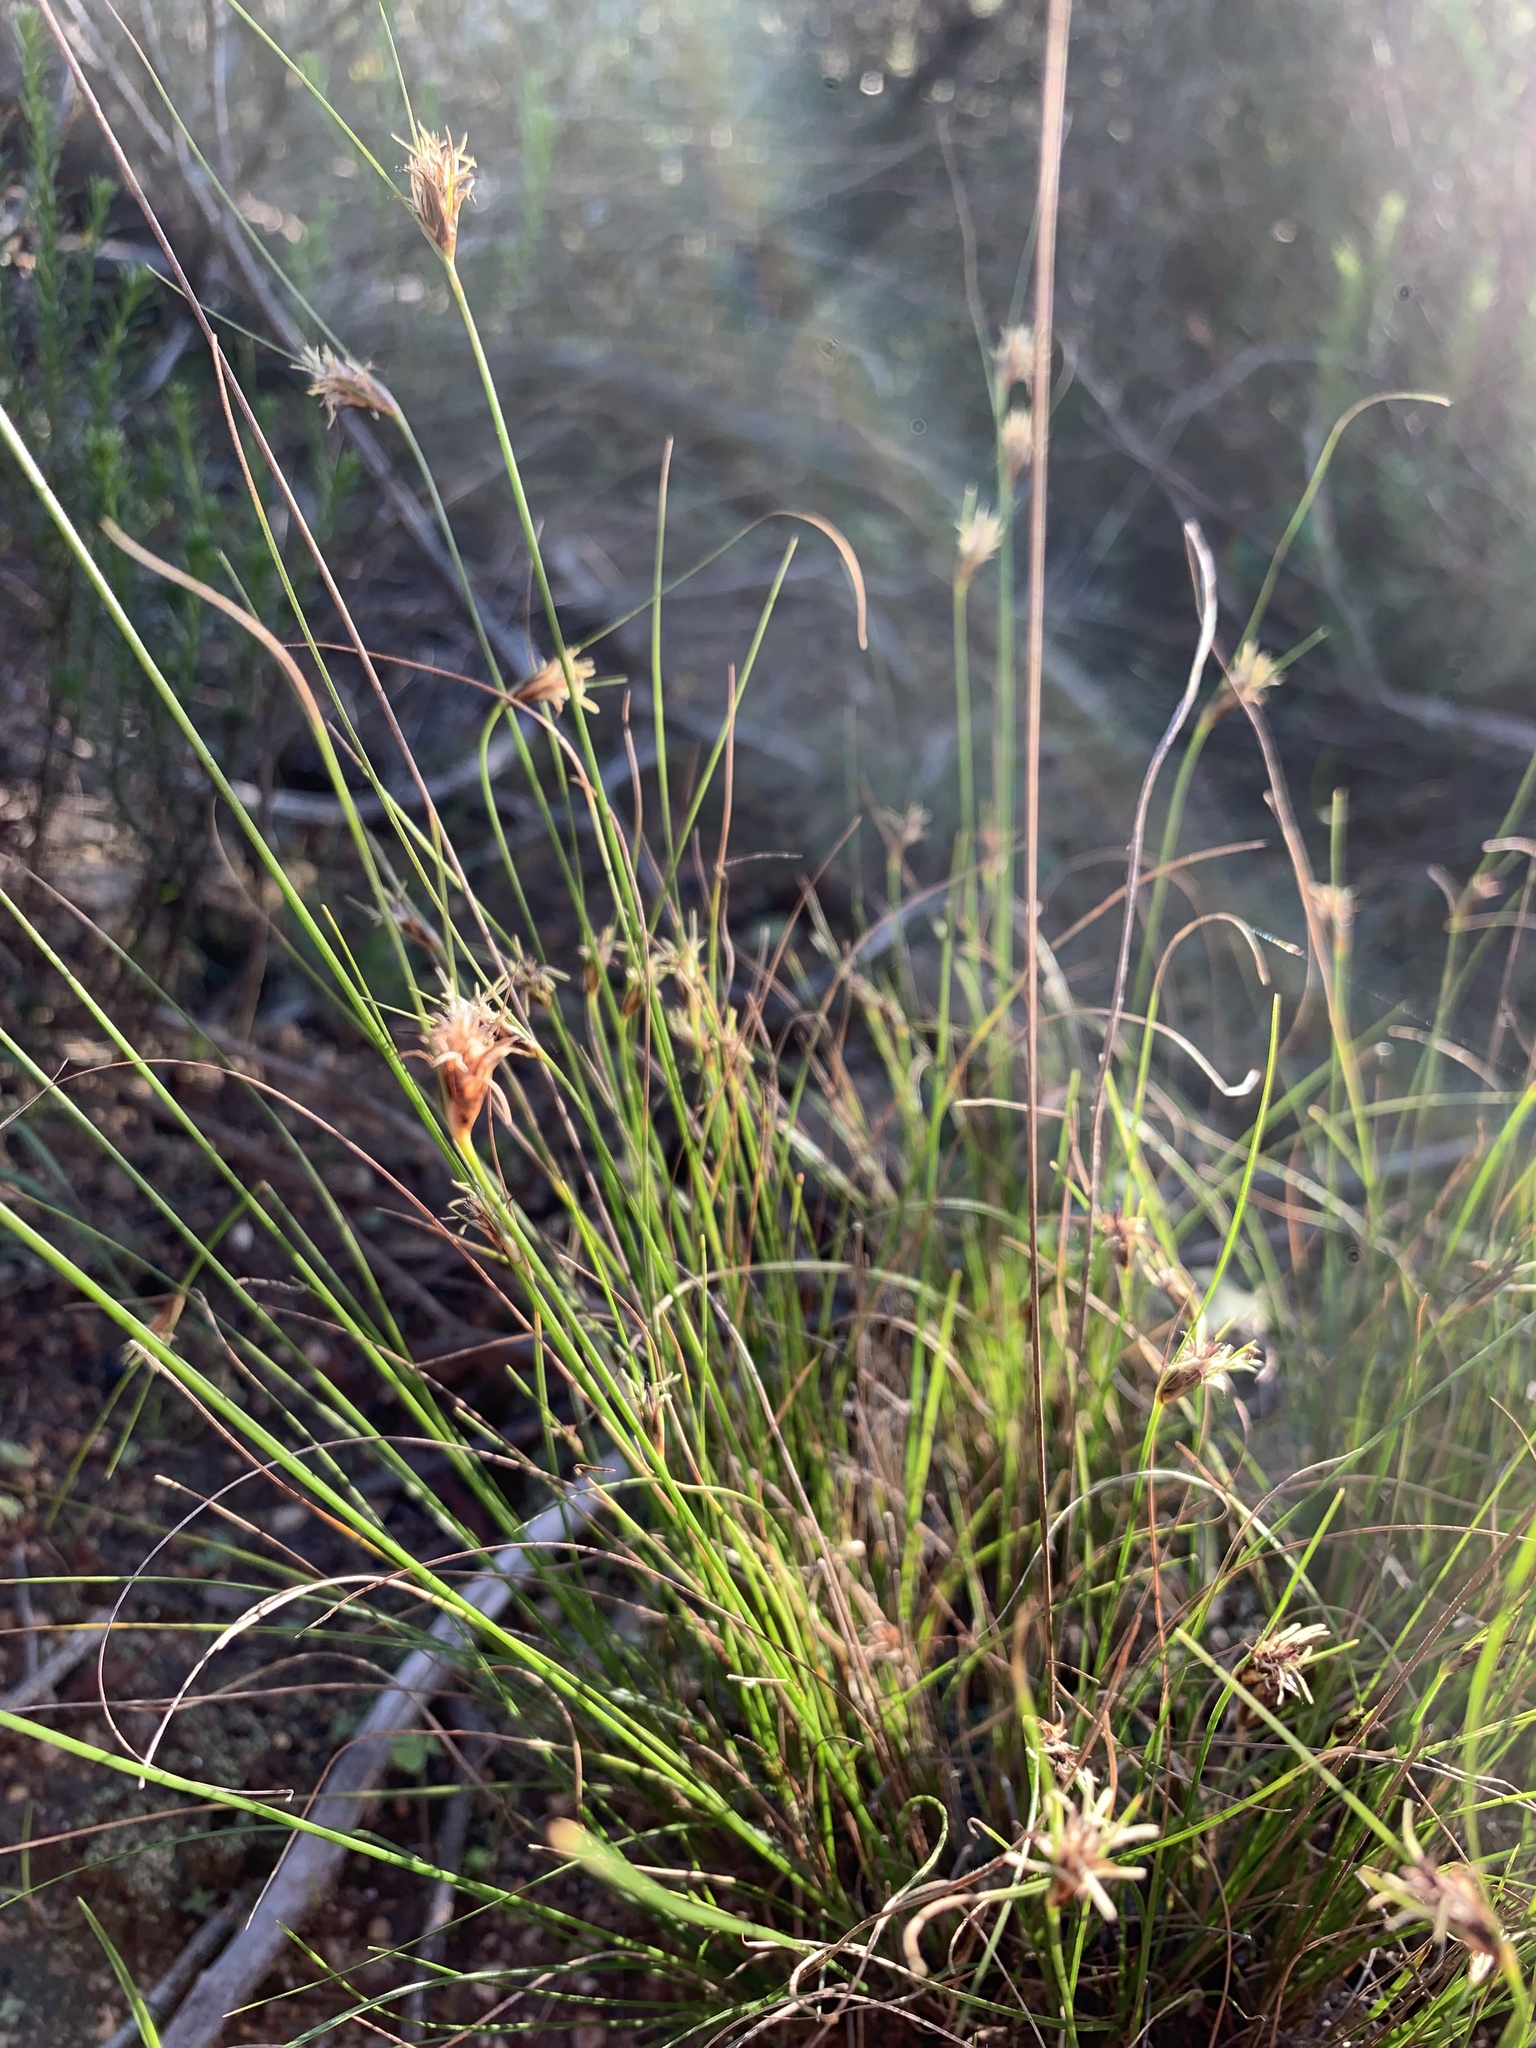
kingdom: Plantae
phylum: Tracheophyta
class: Liliopsida
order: Poales
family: Cyperaceae
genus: Ficinia
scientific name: Ficinia nigrescens
